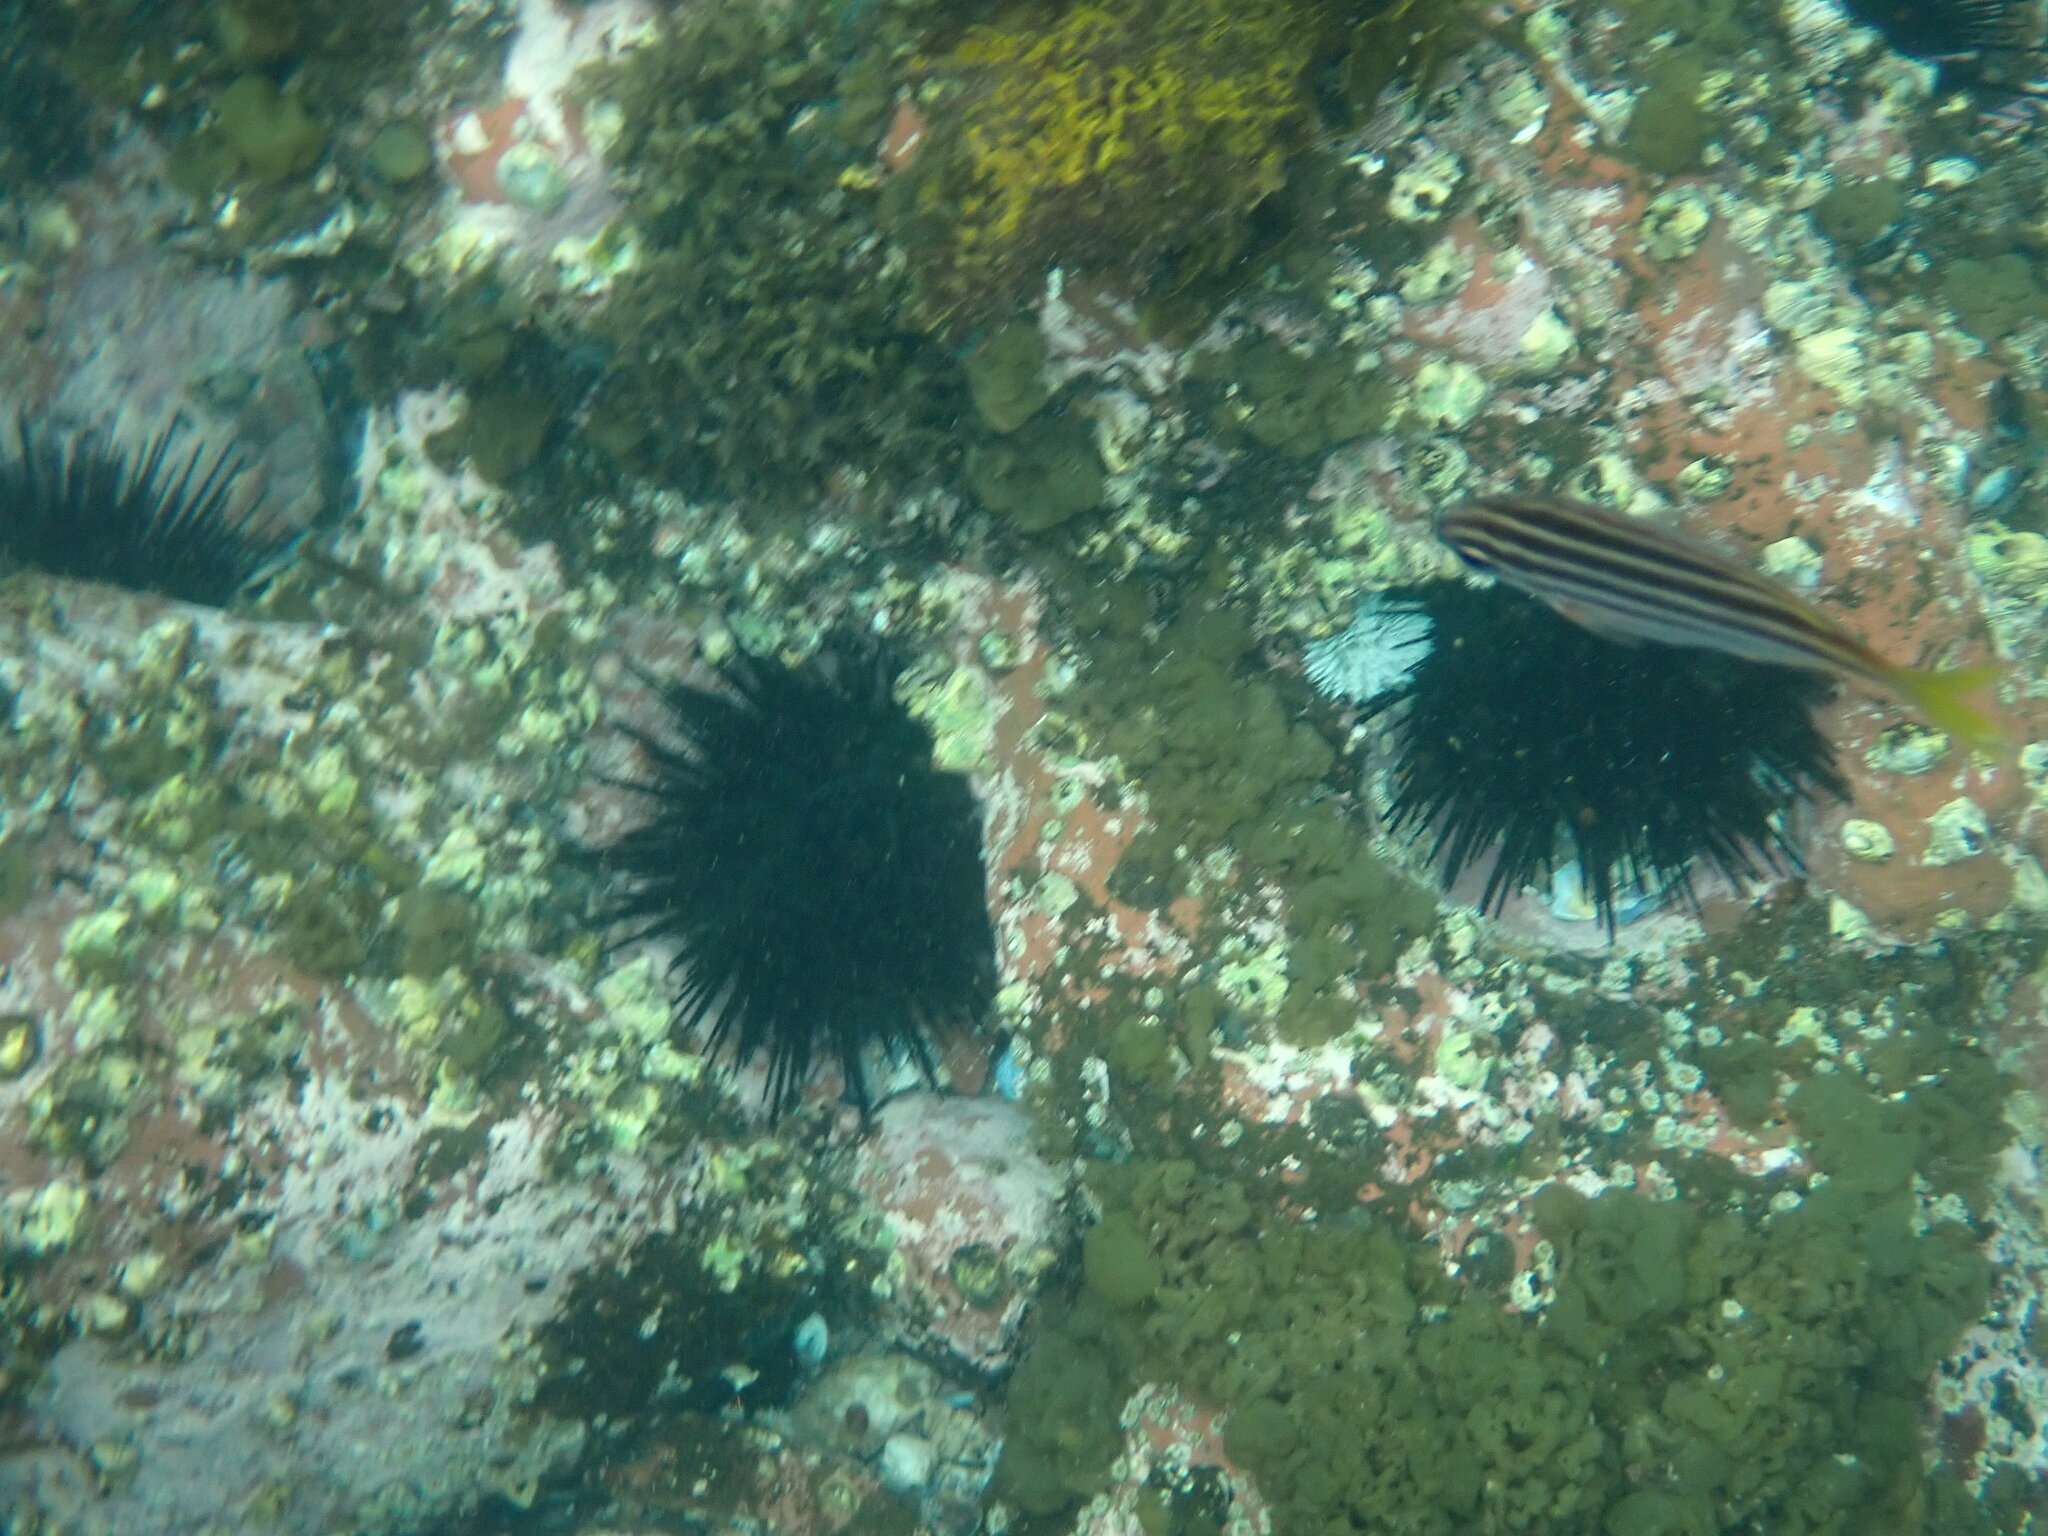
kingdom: Animalia
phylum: Echinodermata
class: Echinoidea
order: Diadematoida
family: Diadematidae
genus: Centrostephanus
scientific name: Centrostephanus rodgersii
